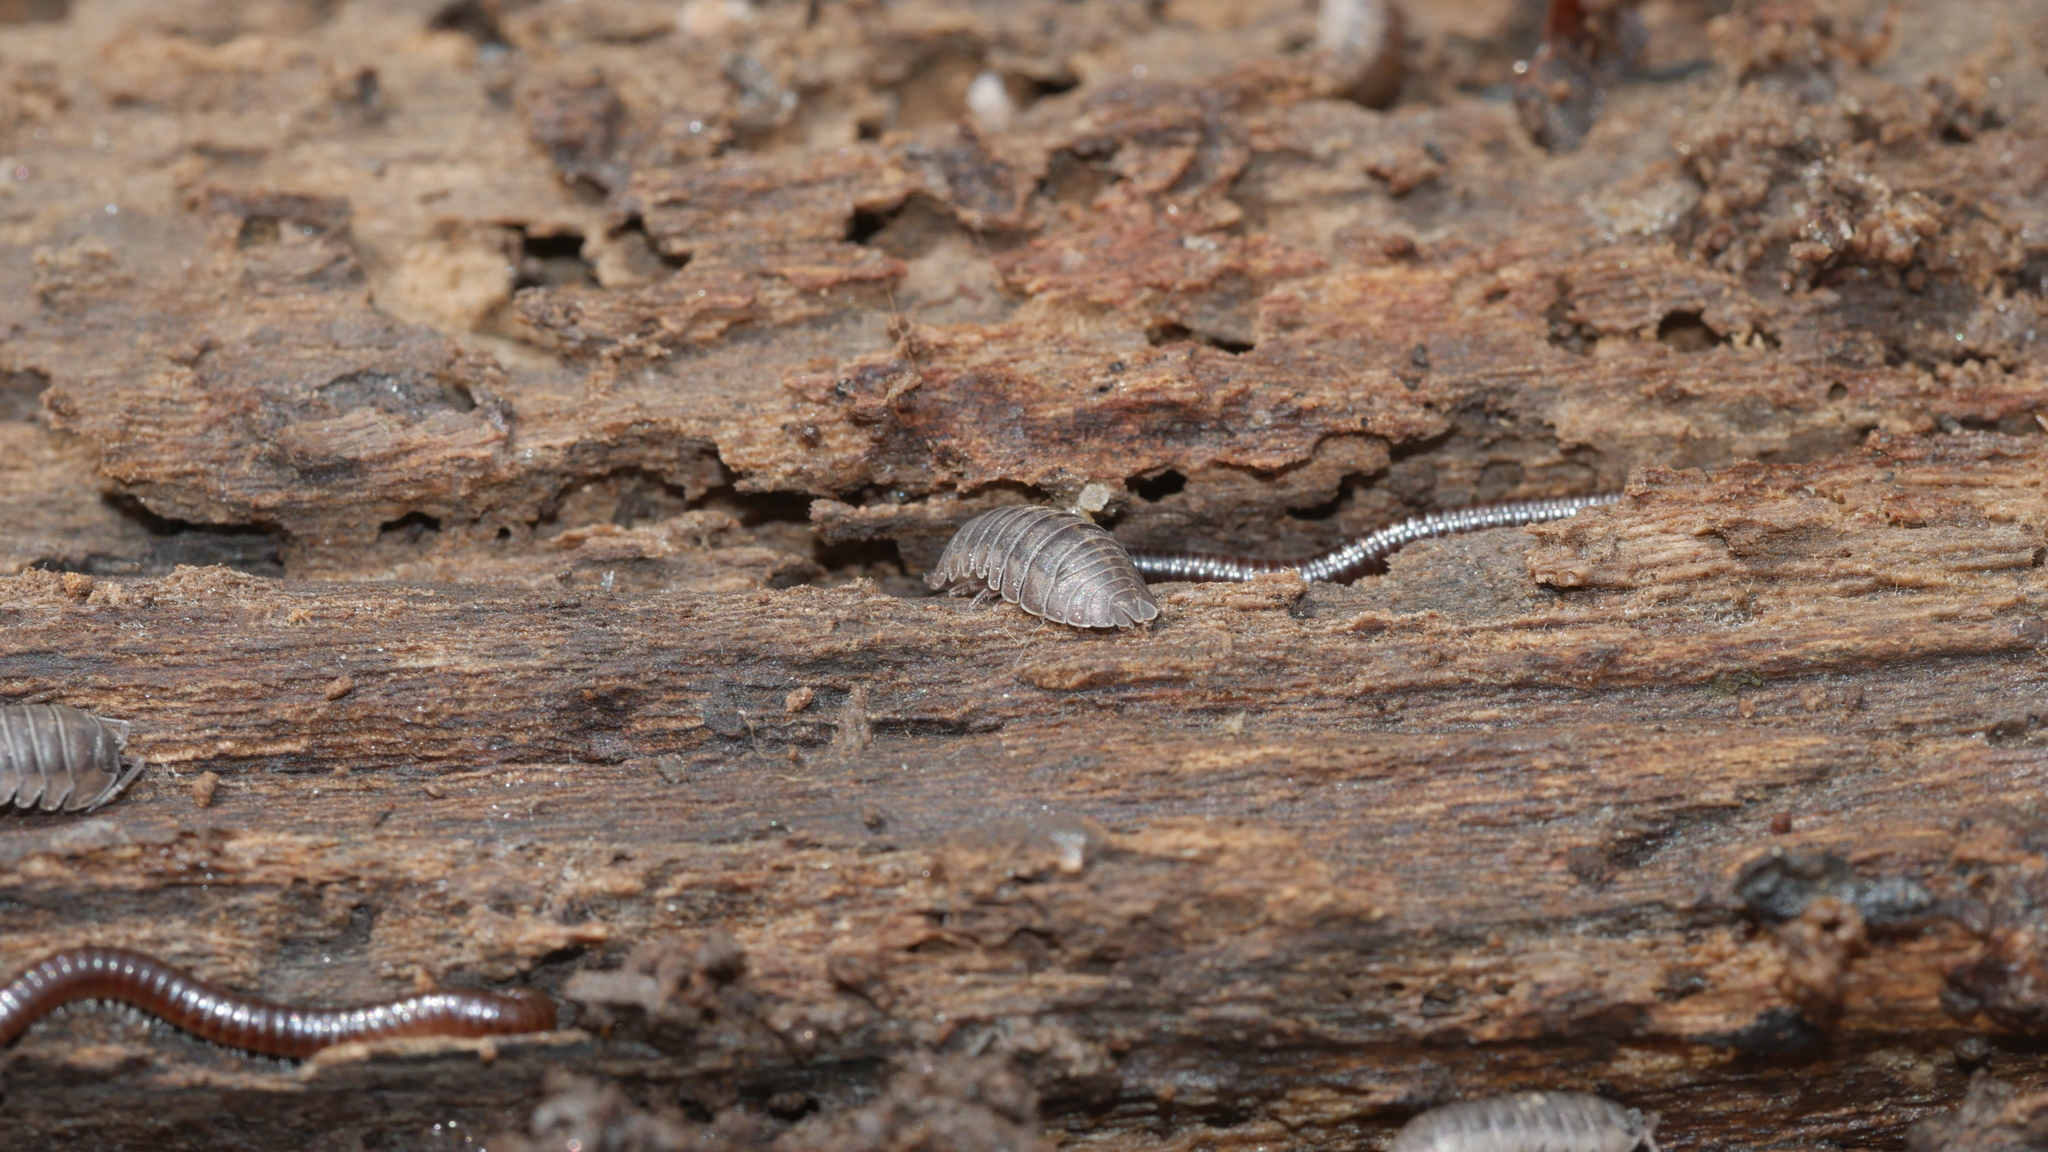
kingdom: Animalia
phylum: Arthropoda
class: Malacostraca
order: Isopoda
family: Armadillidiidae
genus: Armadillidium
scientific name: Armadillidium nasatum
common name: Isopod
